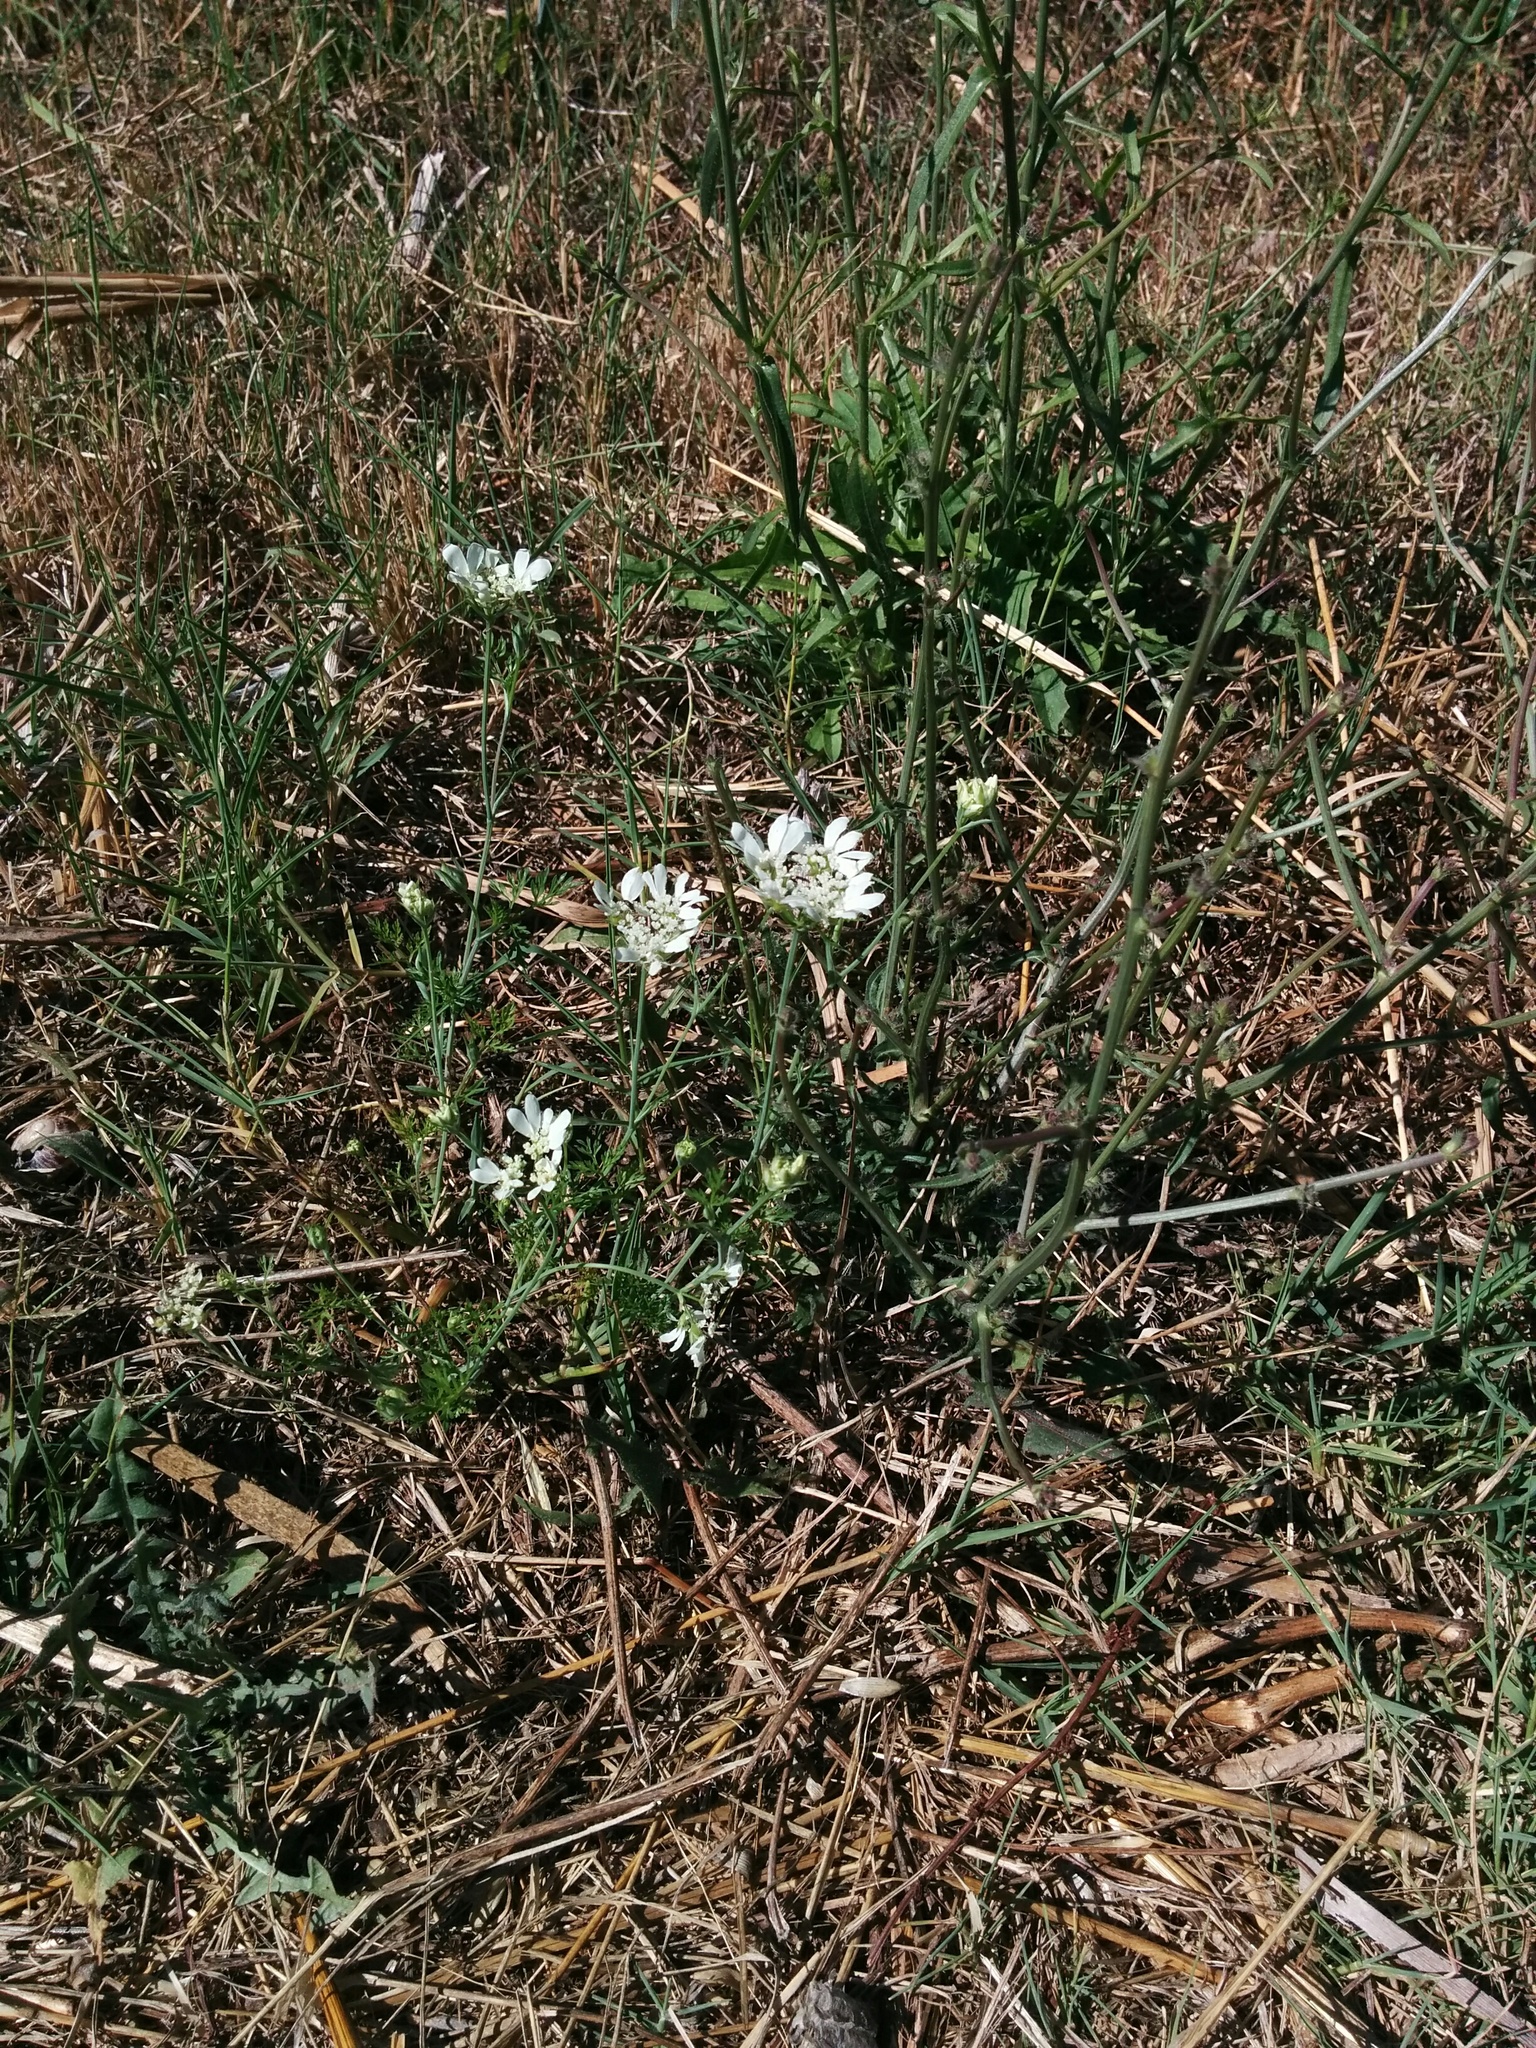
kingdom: Plantae
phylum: Tracheophyta
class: Magnoliopsida
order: Apiales
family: Apiaceae
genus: Orlaya
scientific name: Orlaya grandiflora
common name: White lace flower
